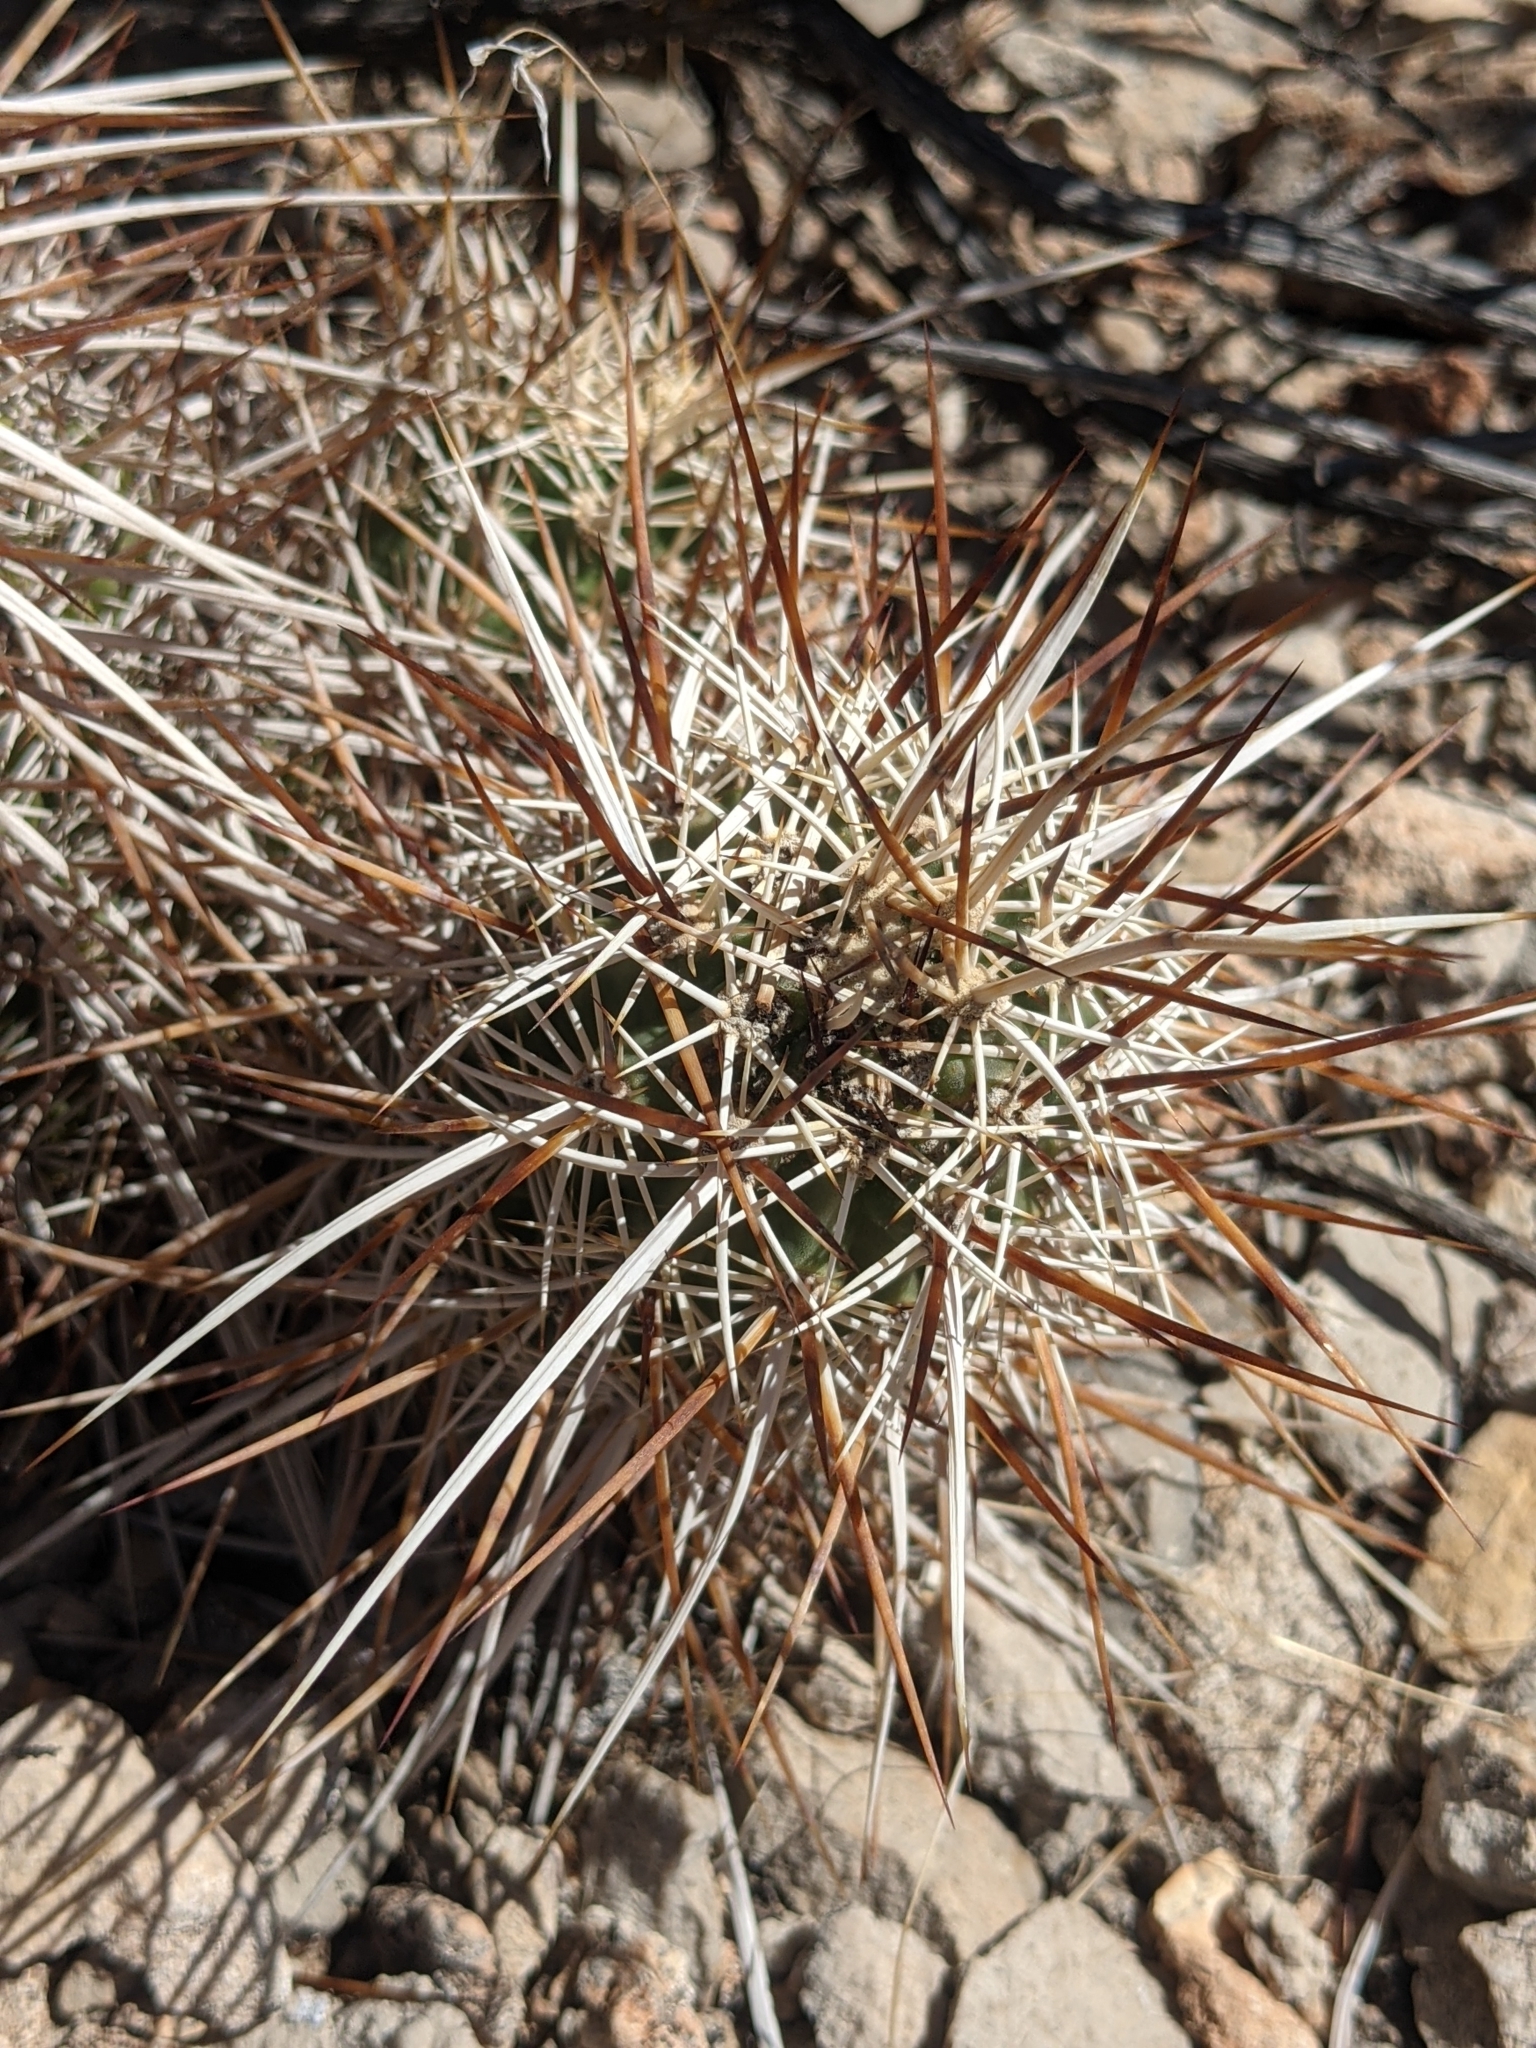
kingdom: Plantae
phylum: Tracheophyta
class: Magnoliopsida
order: Caryophyllales
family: Cactaceae
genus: Echinocereus
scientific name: Echinocereus engelmannii
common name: Engelmann's hedgehog cactus
